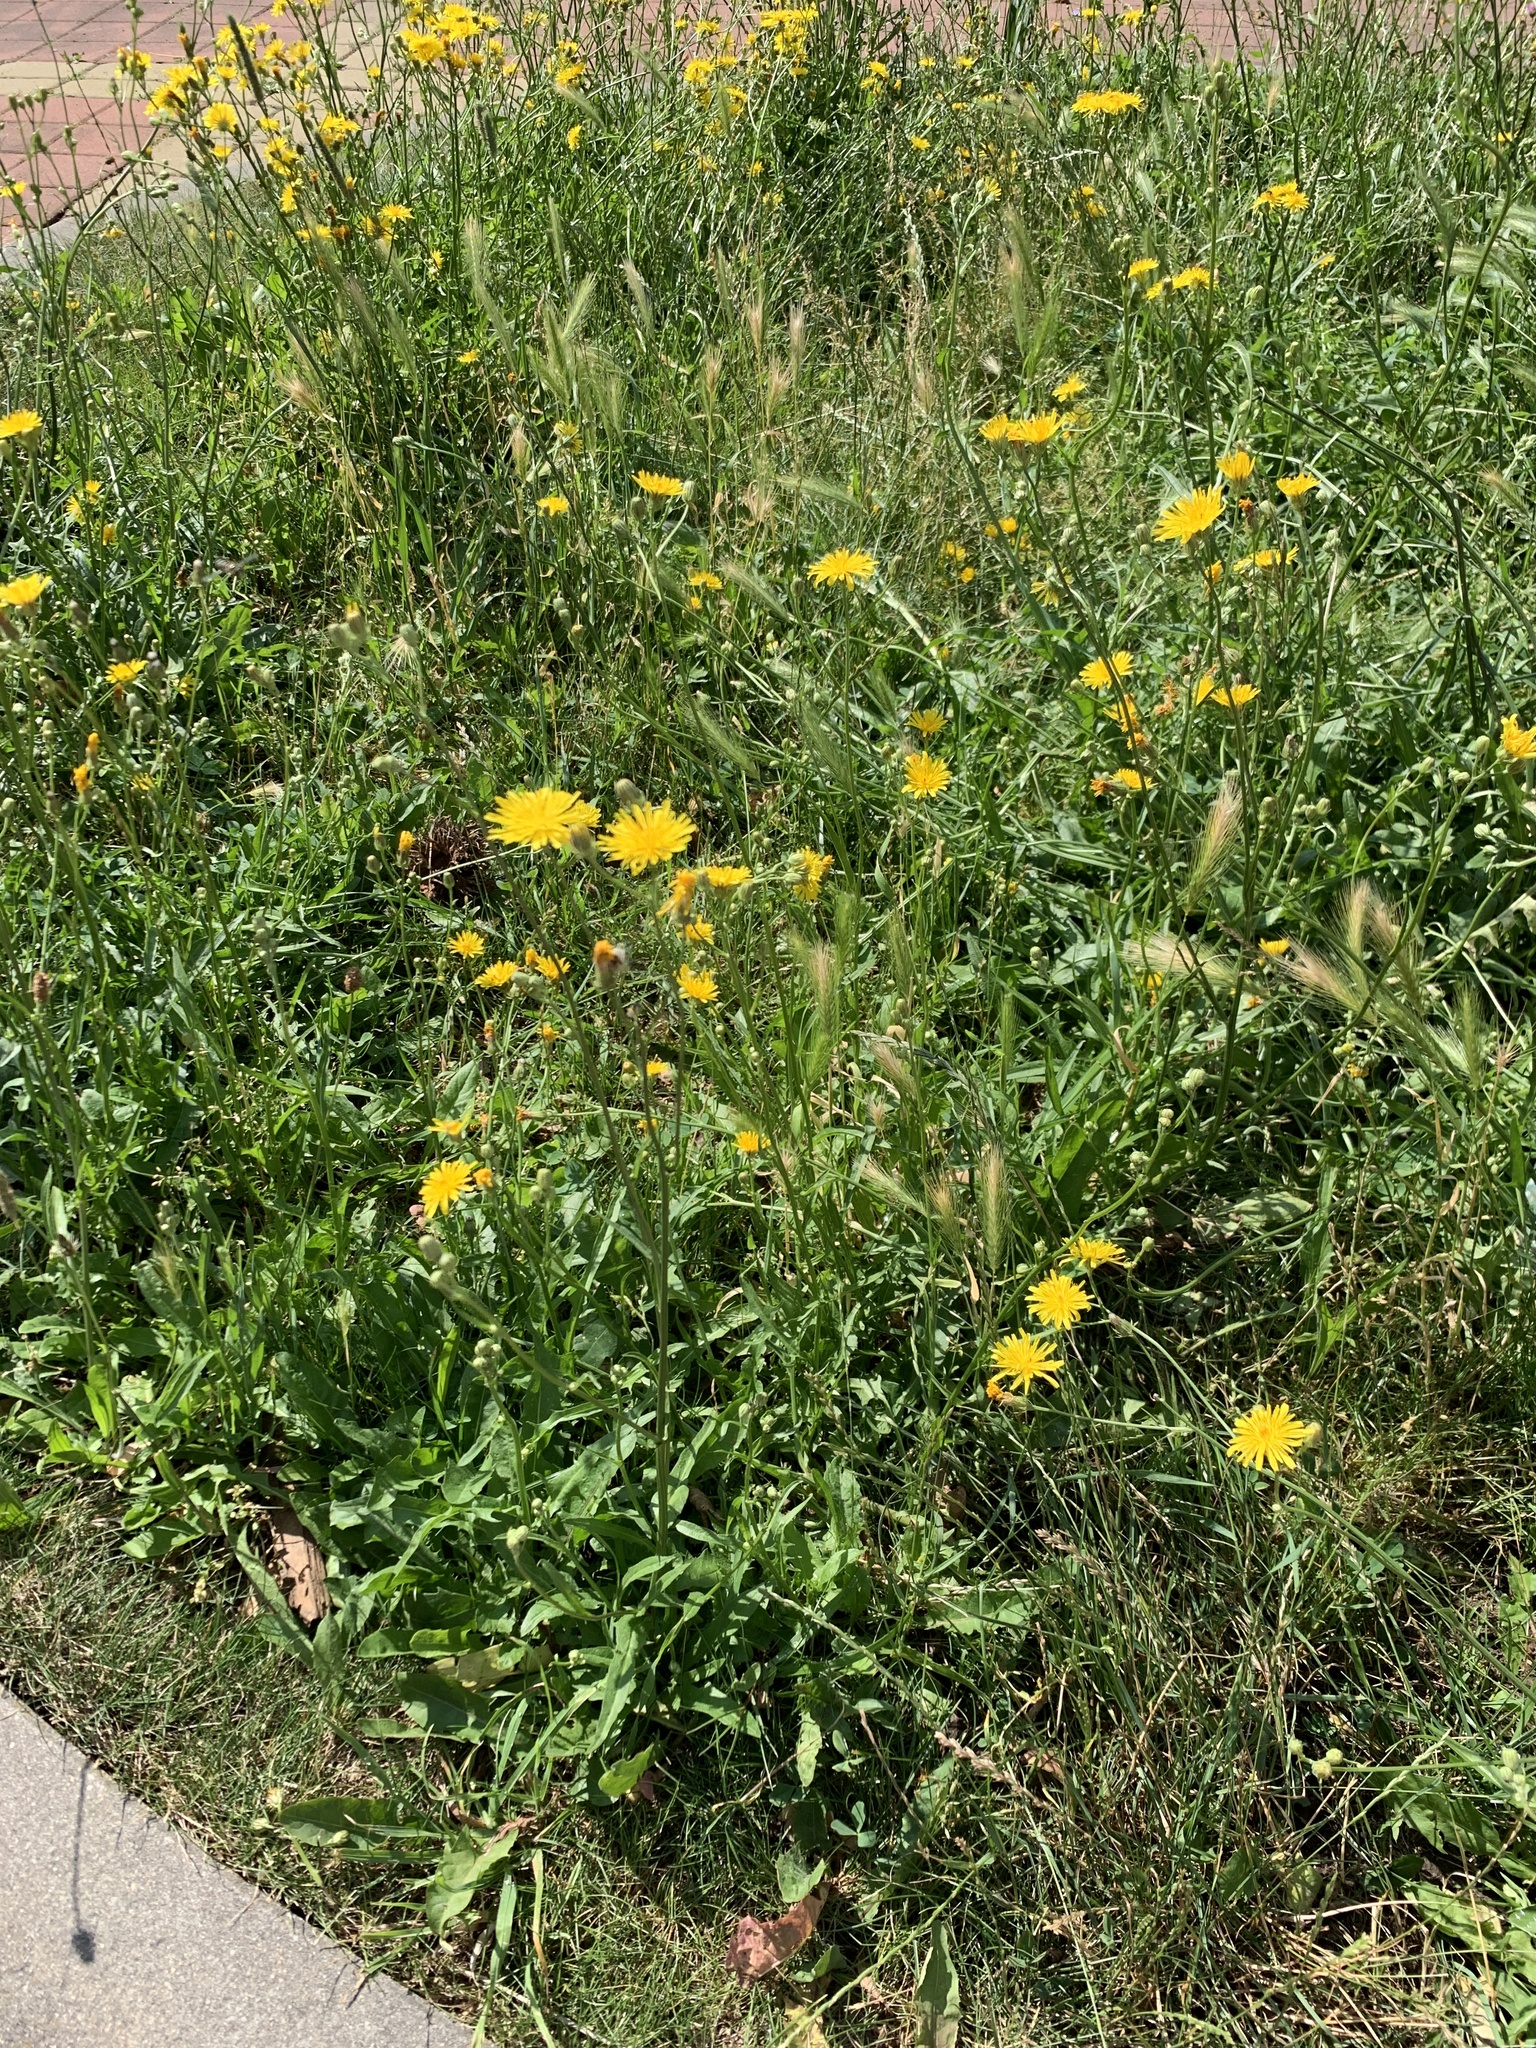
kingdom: Plantae
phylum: Tracheophyta
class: Magnoliopsida
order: Asterales
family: Asteraceae
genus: Crepis
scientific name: Crepis biennis
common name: Rough hawk's-beard
